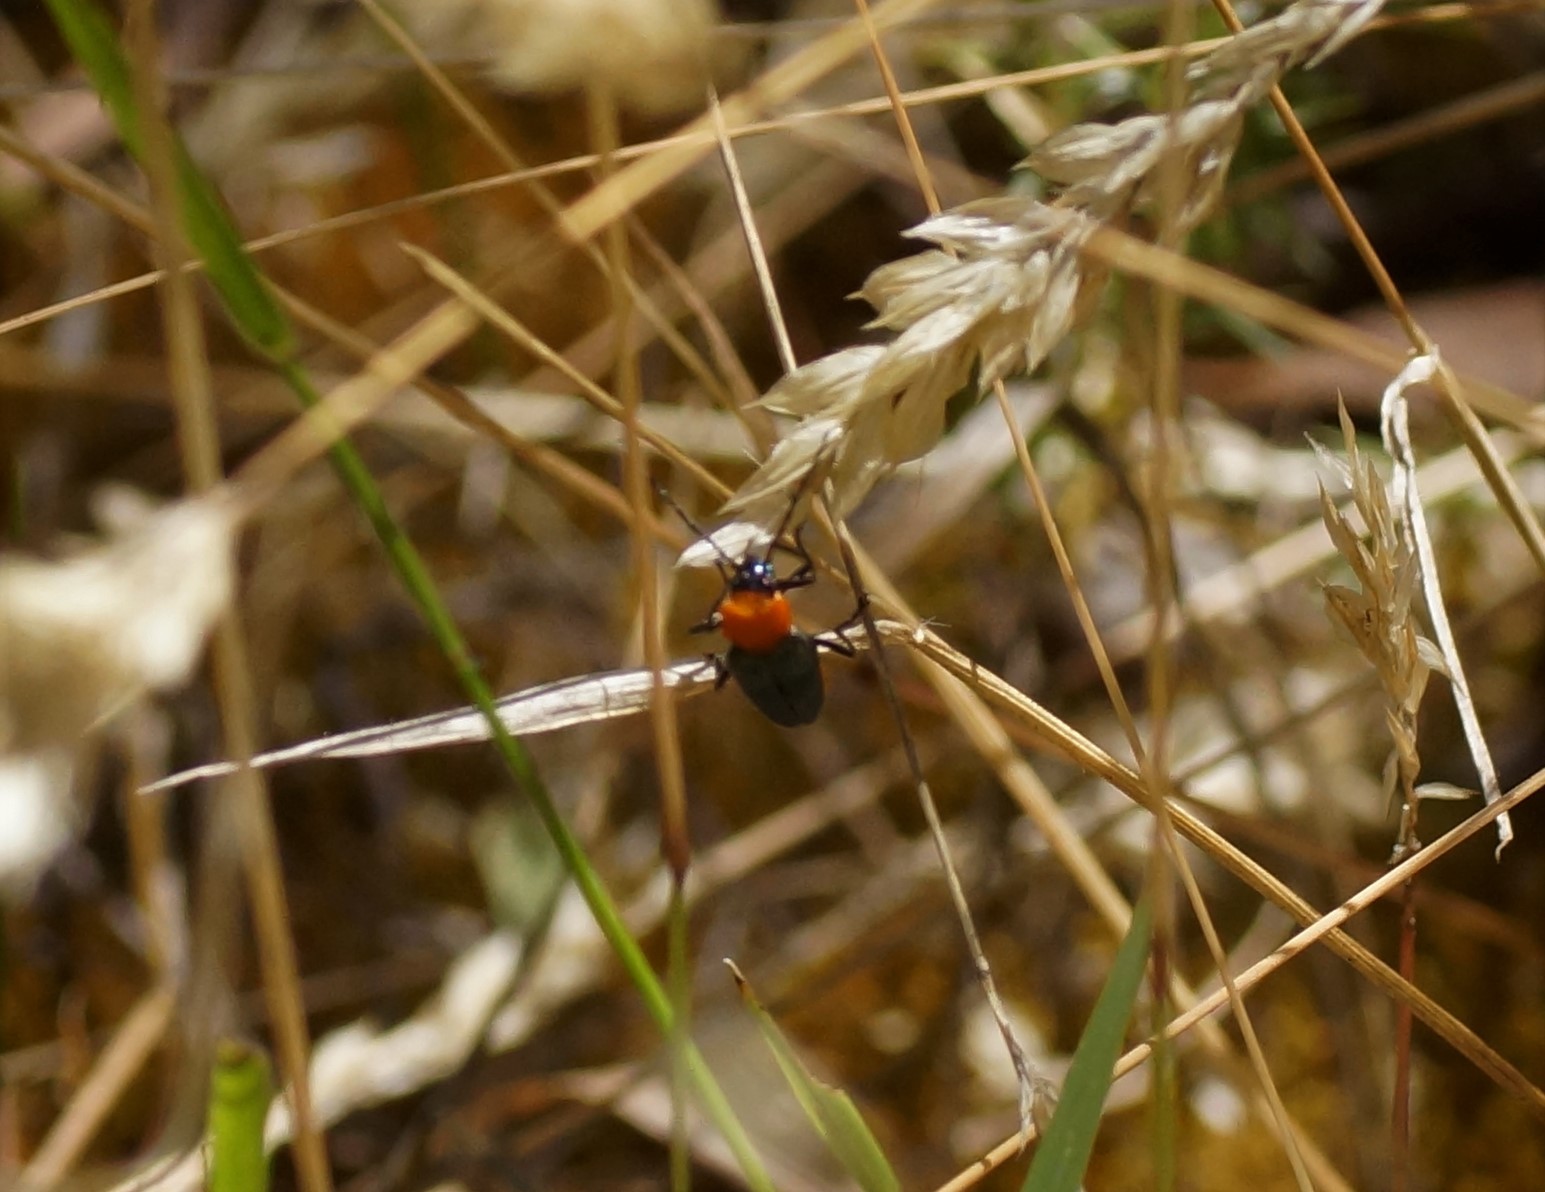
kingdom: Animalia
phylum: Arthropoda
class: Insecta
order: Coleoptera
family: Cantharidae
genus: Chauliognathus
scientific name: Chauliognathus
